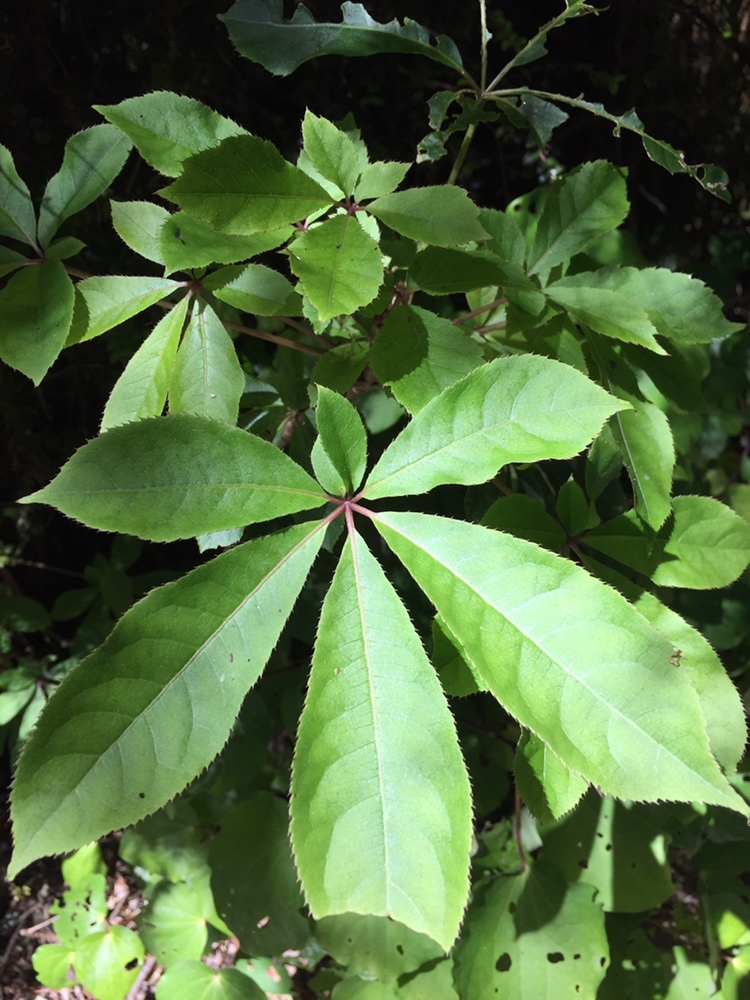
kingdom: Plantae
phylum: Tracheophyta
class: Magnoliopsida
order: Apiales
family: Araliaceae
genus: Schefflera
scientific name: Schefflera digitata
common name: Pate
